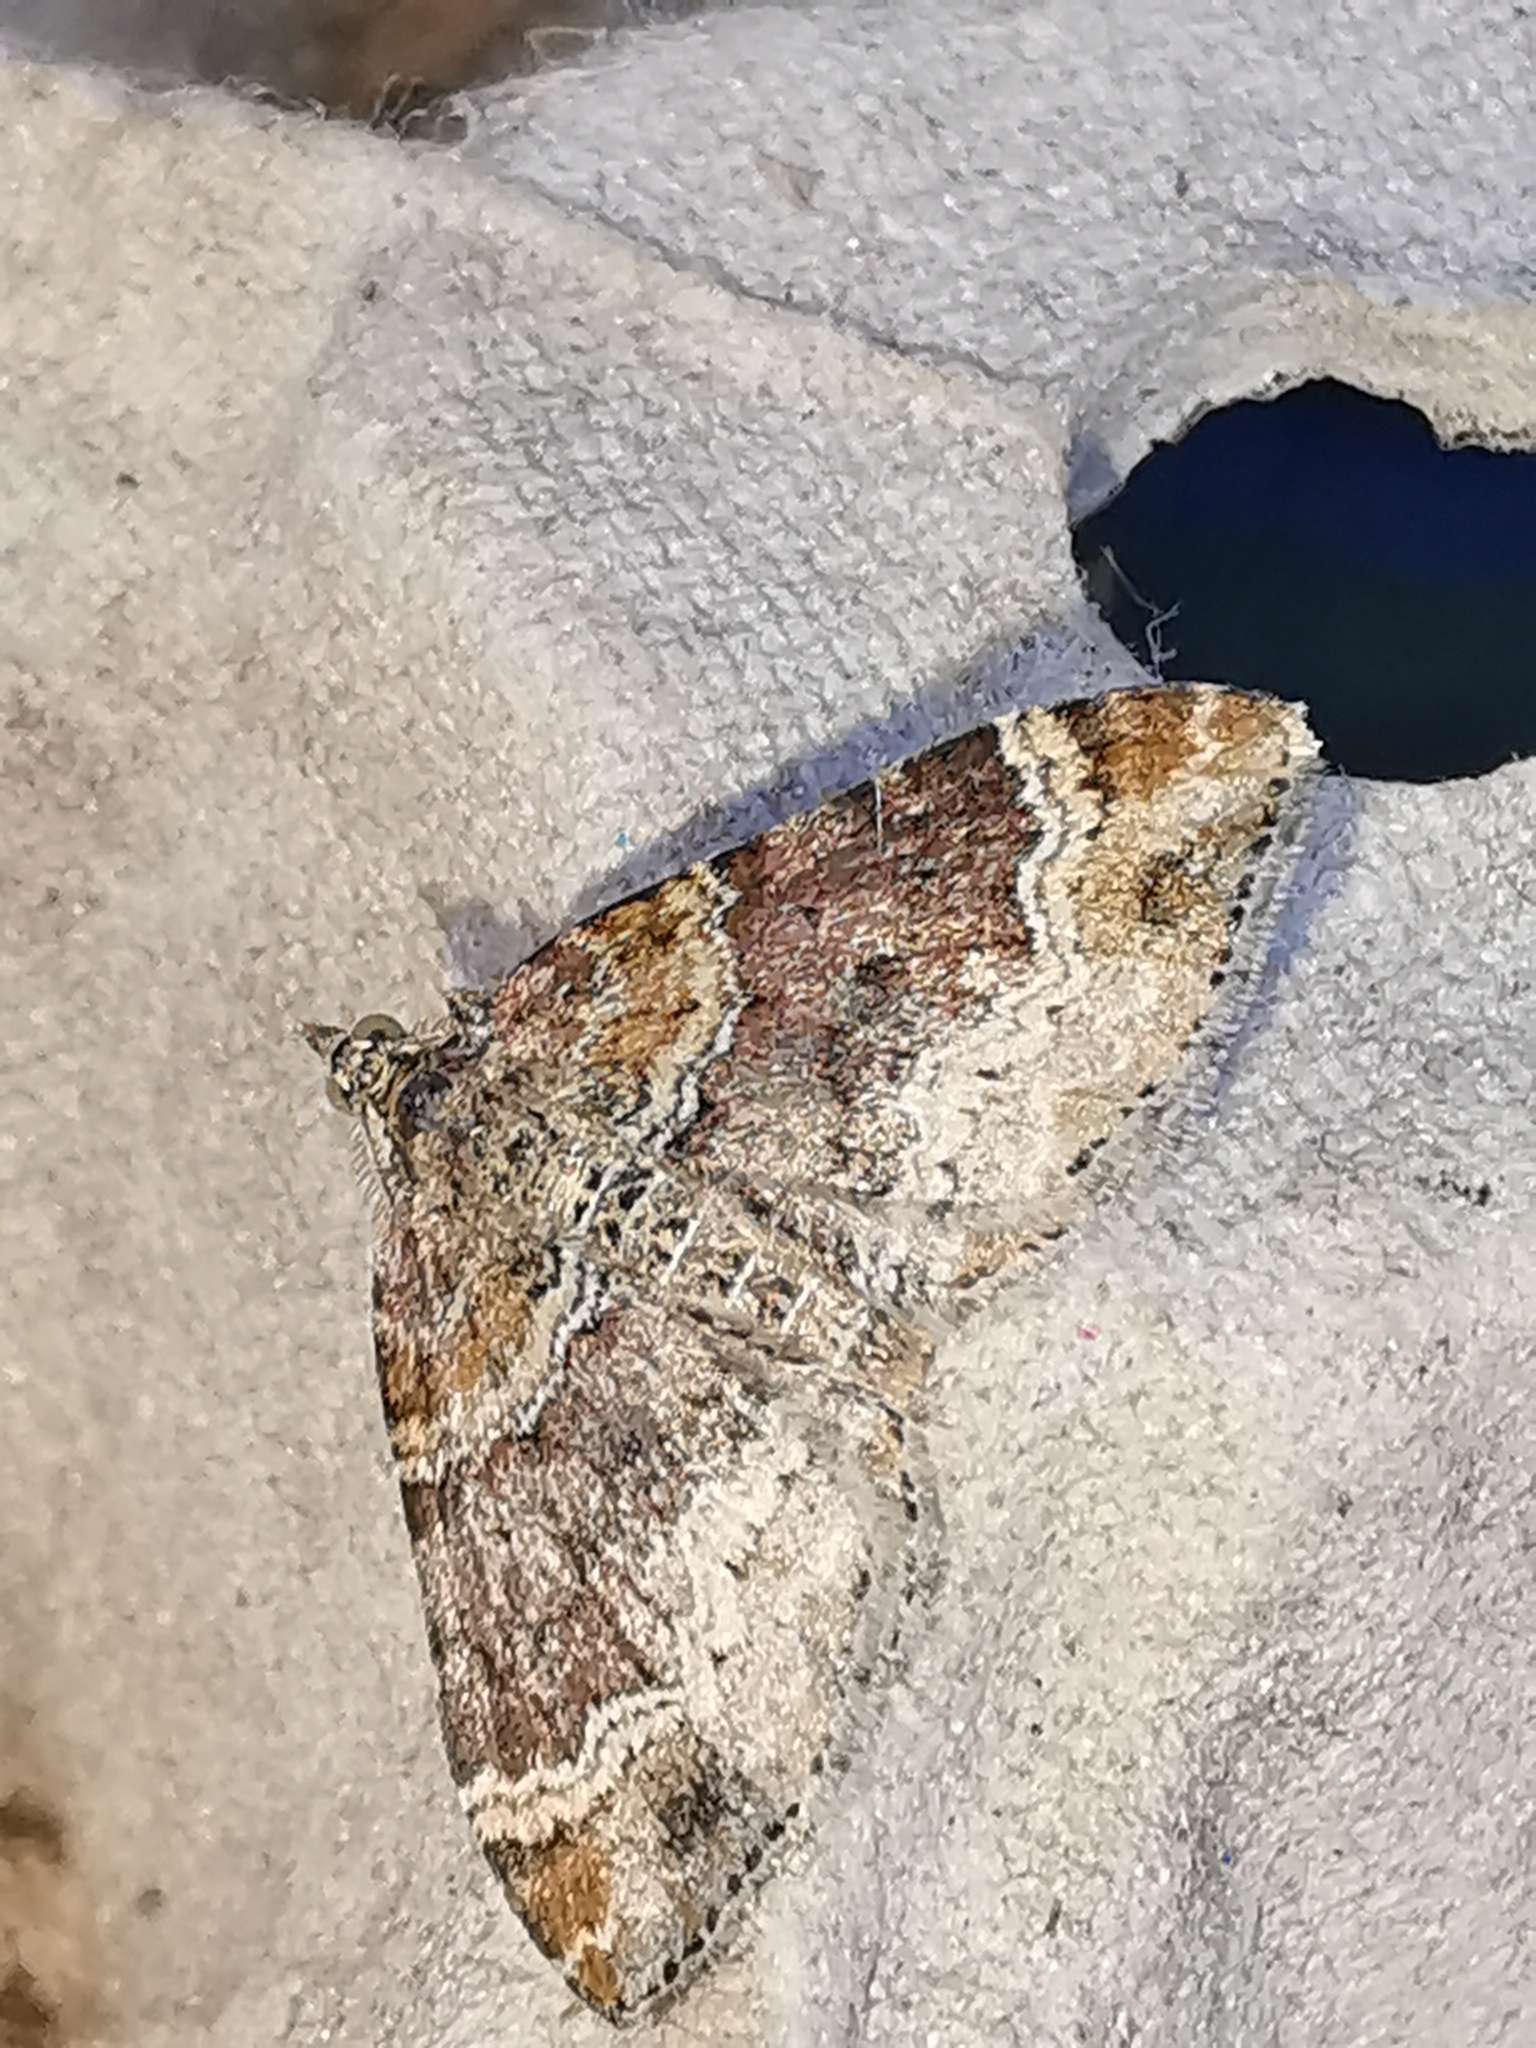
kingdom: Animalia
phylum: Arthropoda
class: Insecta
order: Lepidoptera
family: Geometridae
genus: Xanthorhoe
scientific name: Xanthorhoe spadicearia
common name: Red twin-spot carpet
